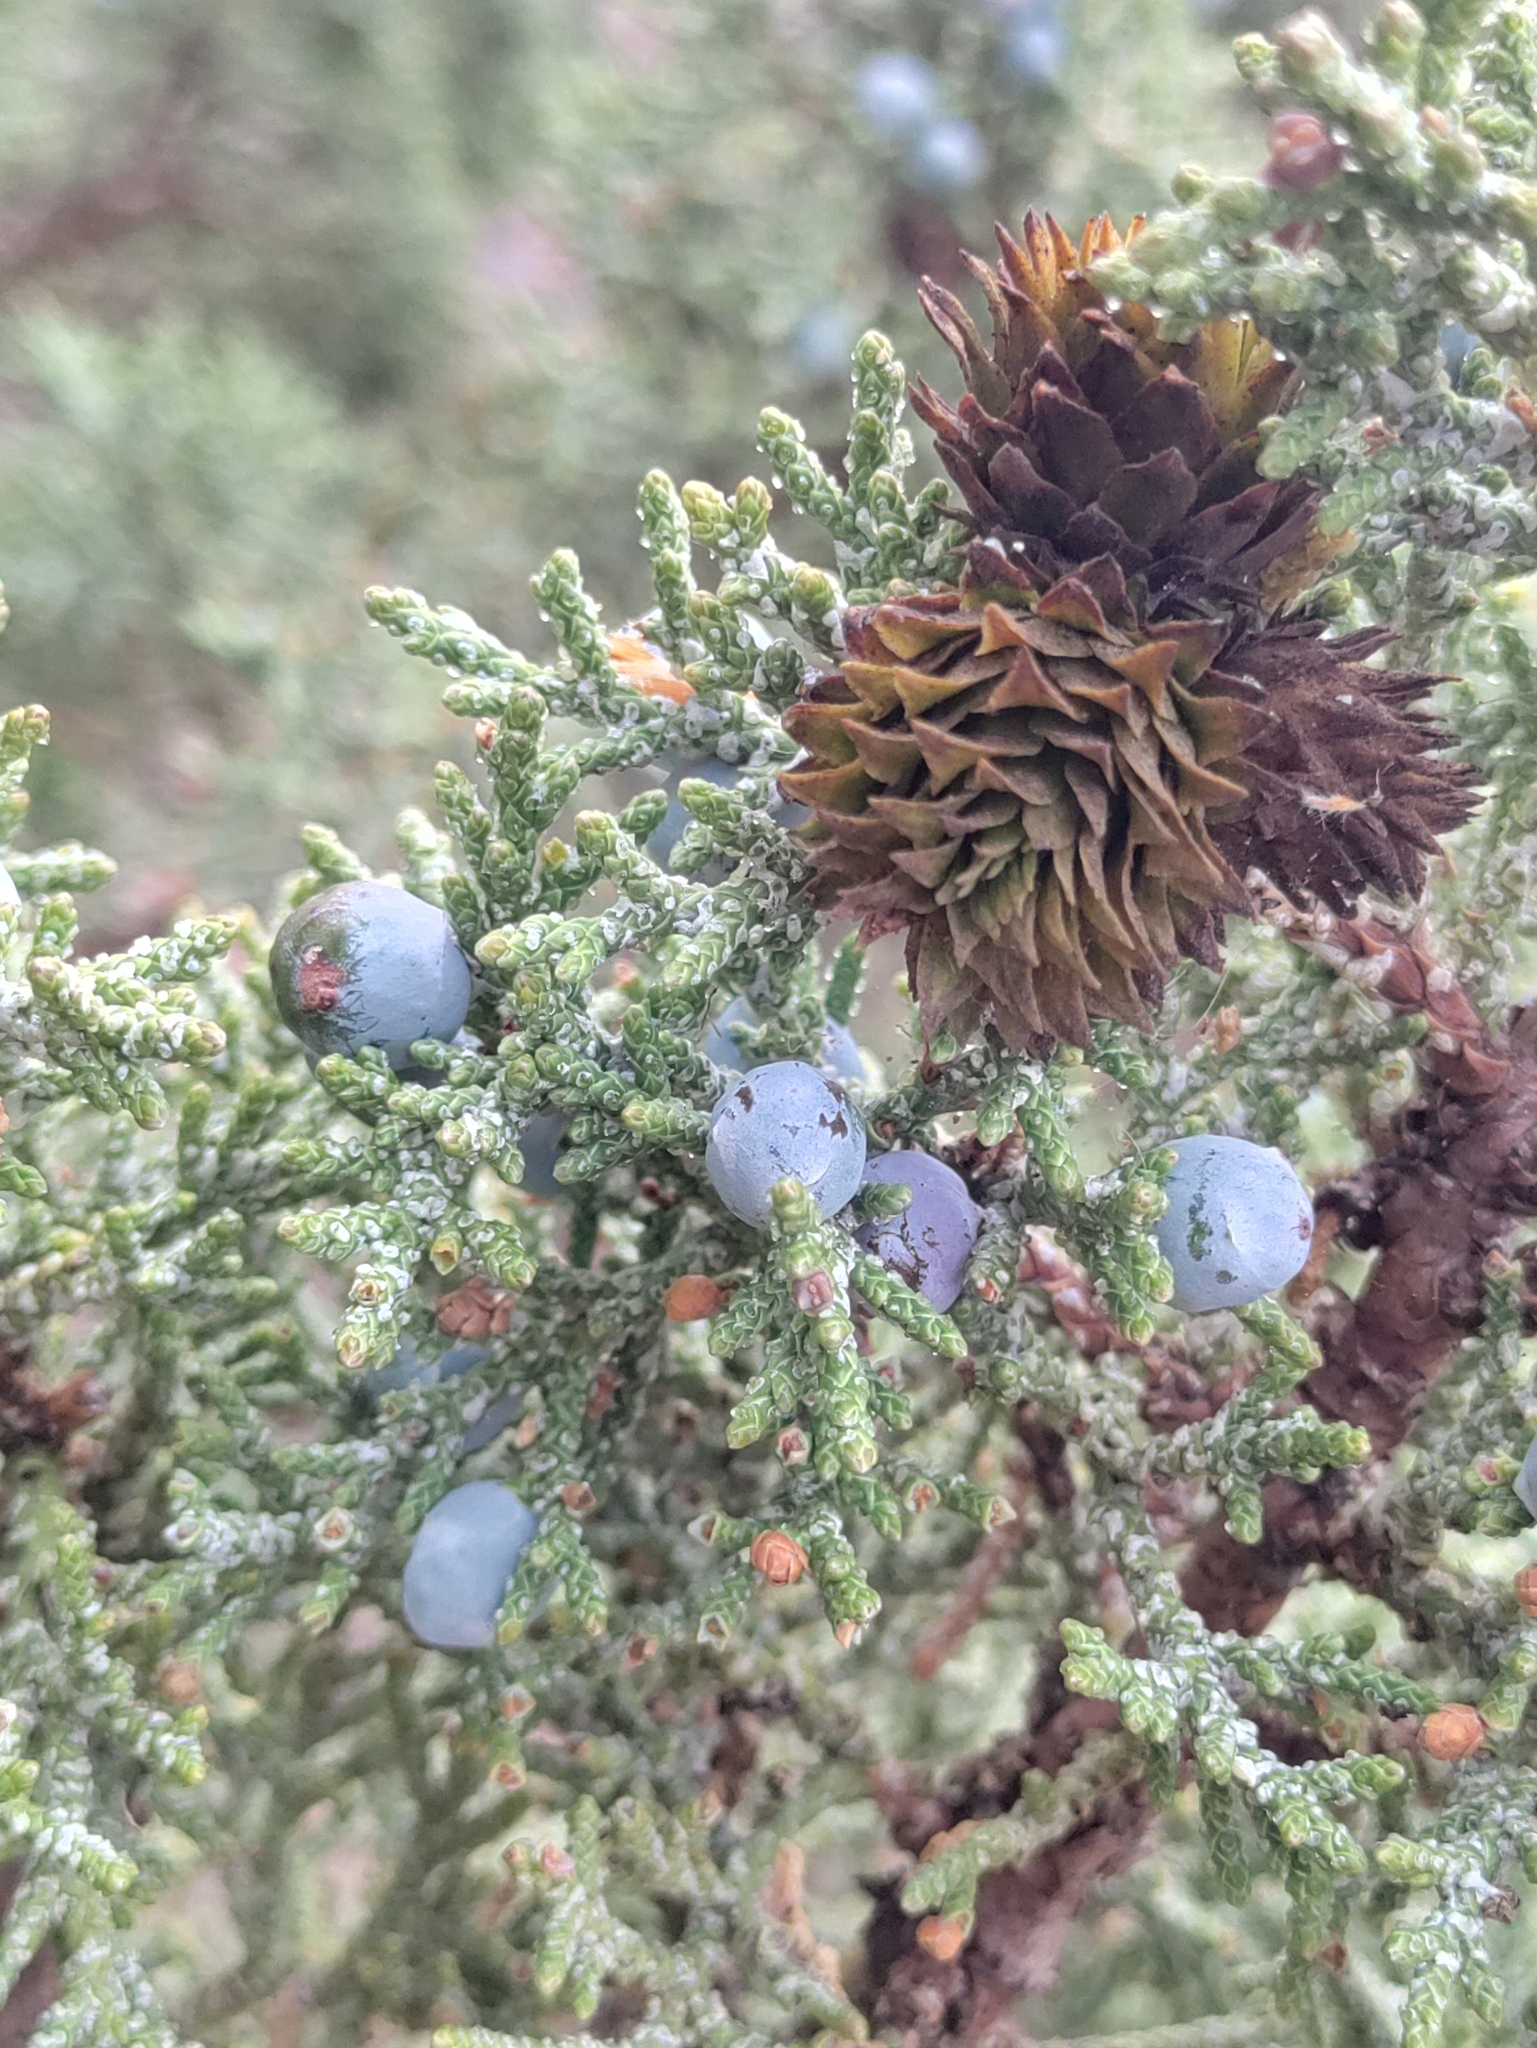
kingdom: Plantae
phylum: Tracheophyta
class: Pinopsida
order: Pinales
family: Cupressaceae
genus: Juniperus
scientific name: Juniperus occidentalis
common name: Western juniper
